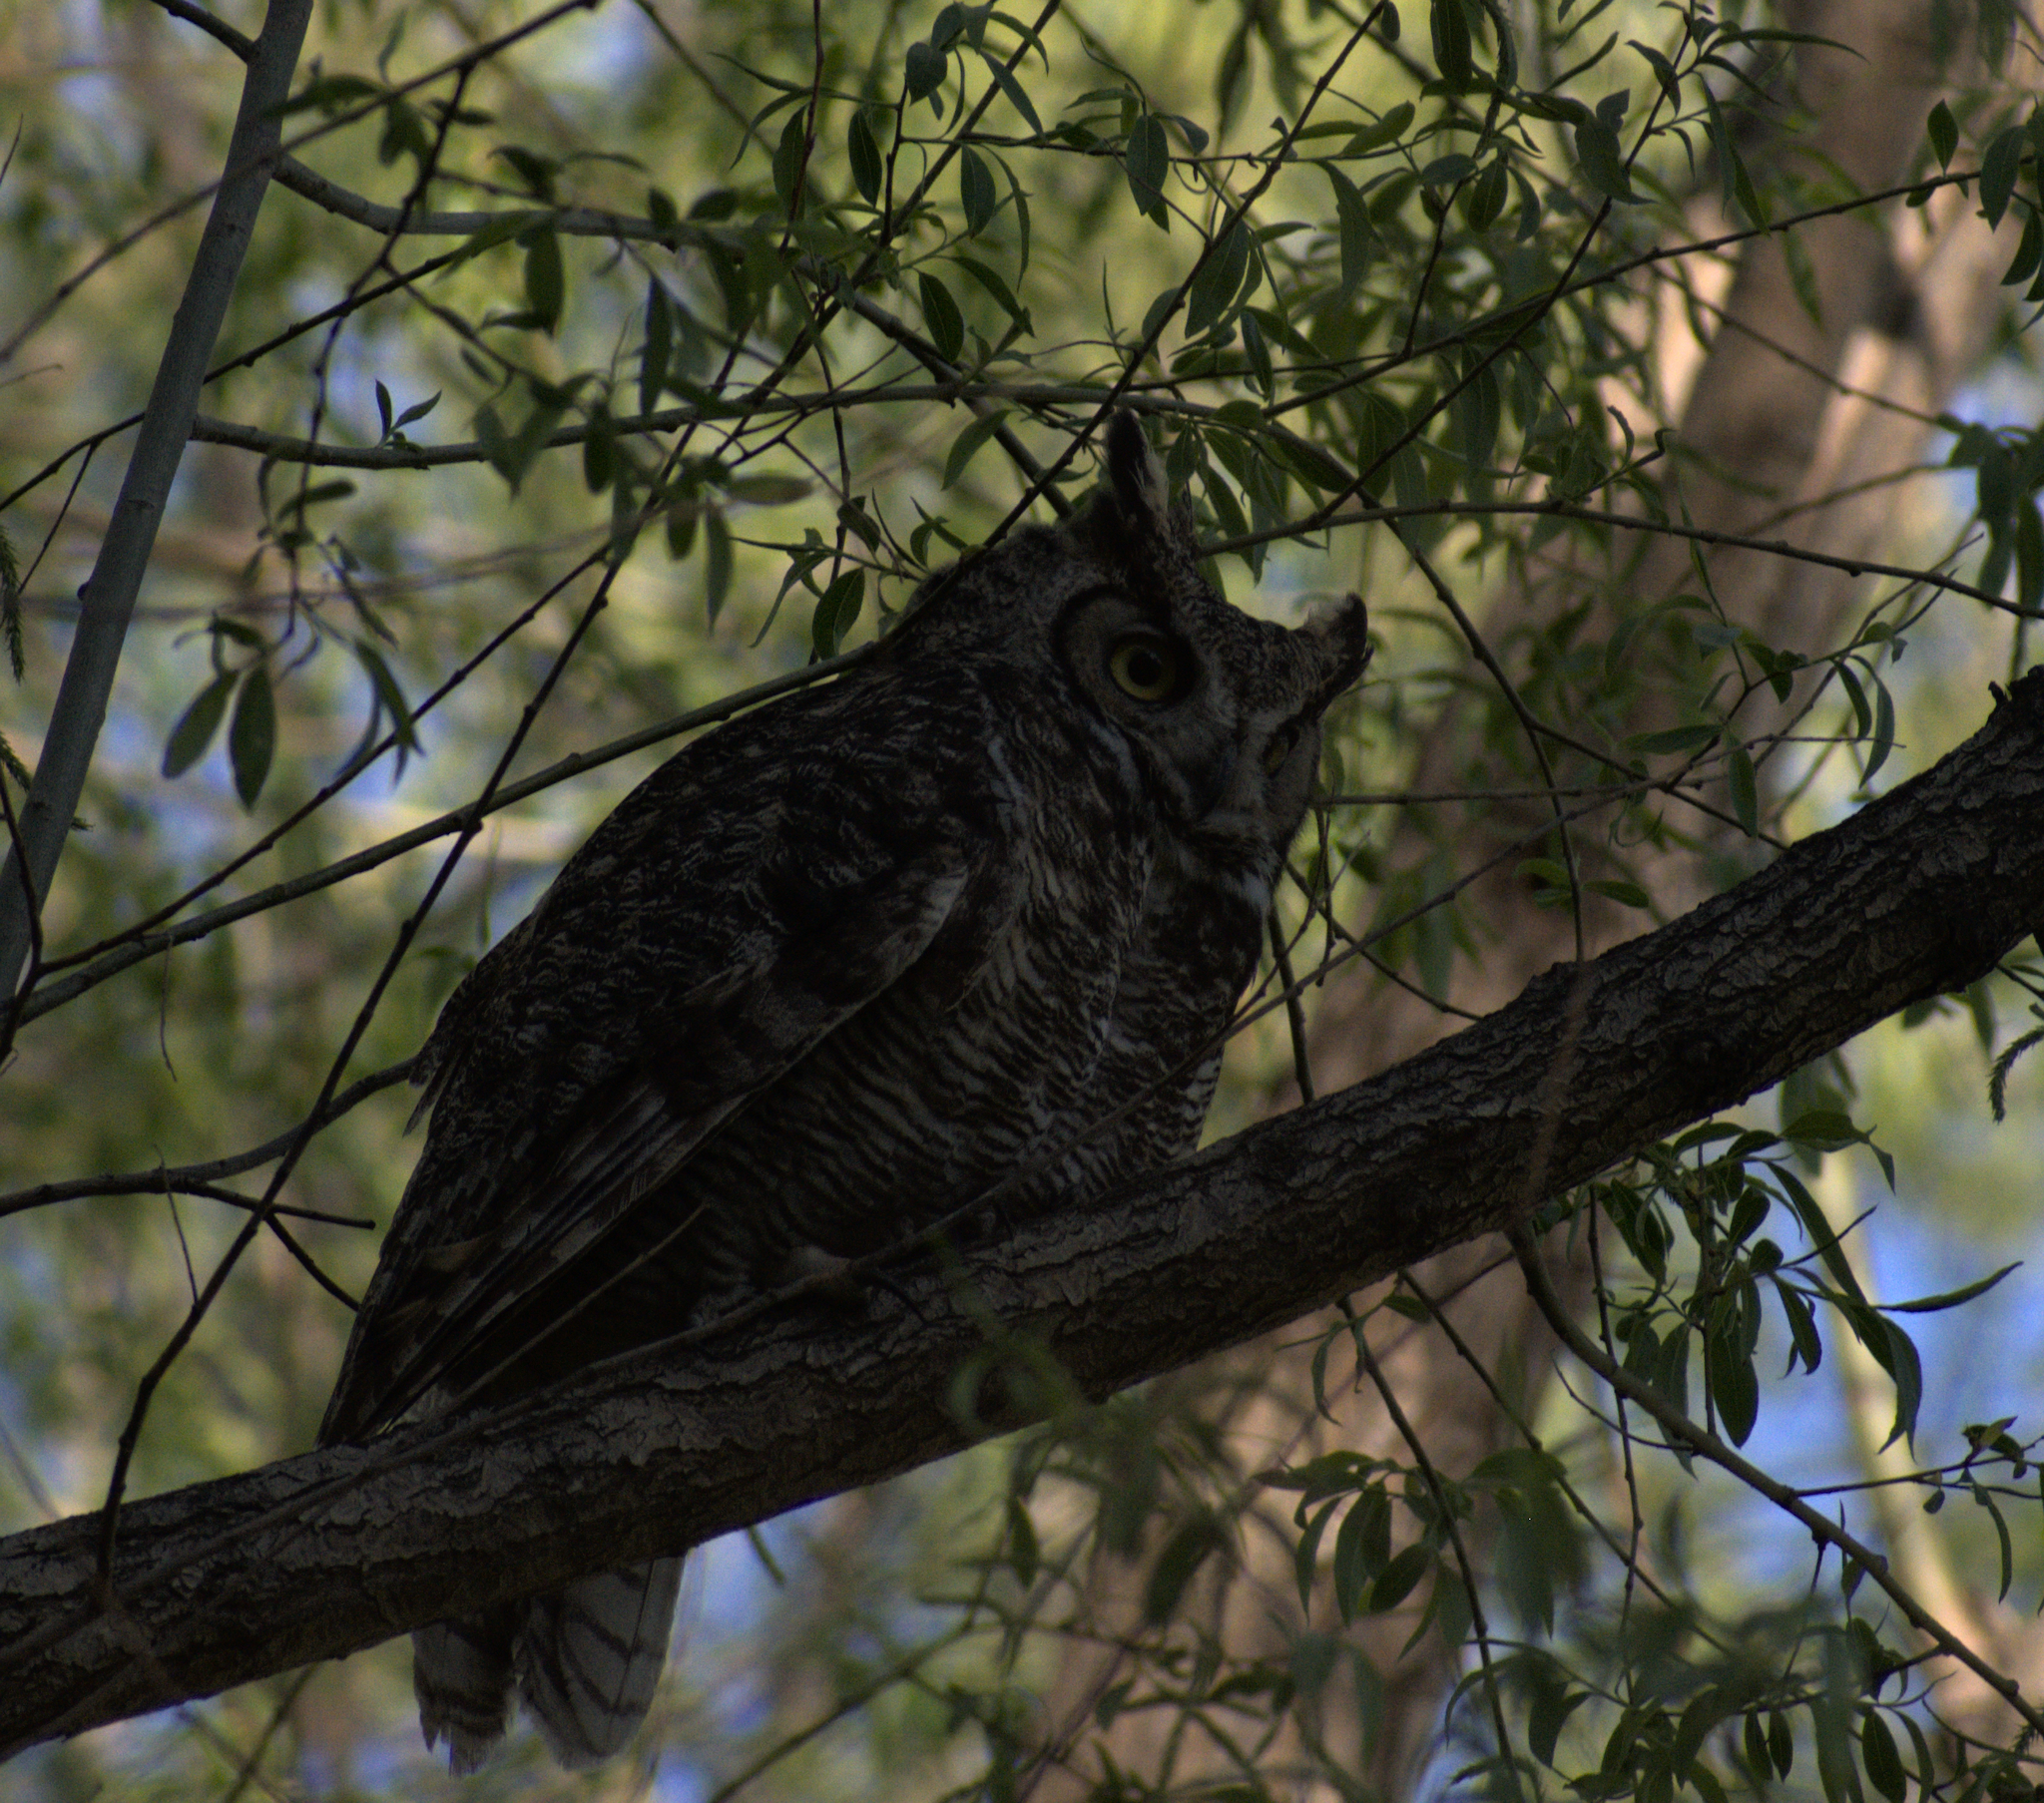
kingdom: Animalia
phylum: Chordata
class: Aves
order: Strigiformes
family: Strigidae
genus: Bubo
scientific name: Bubo virginianus
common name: Great horned owl
